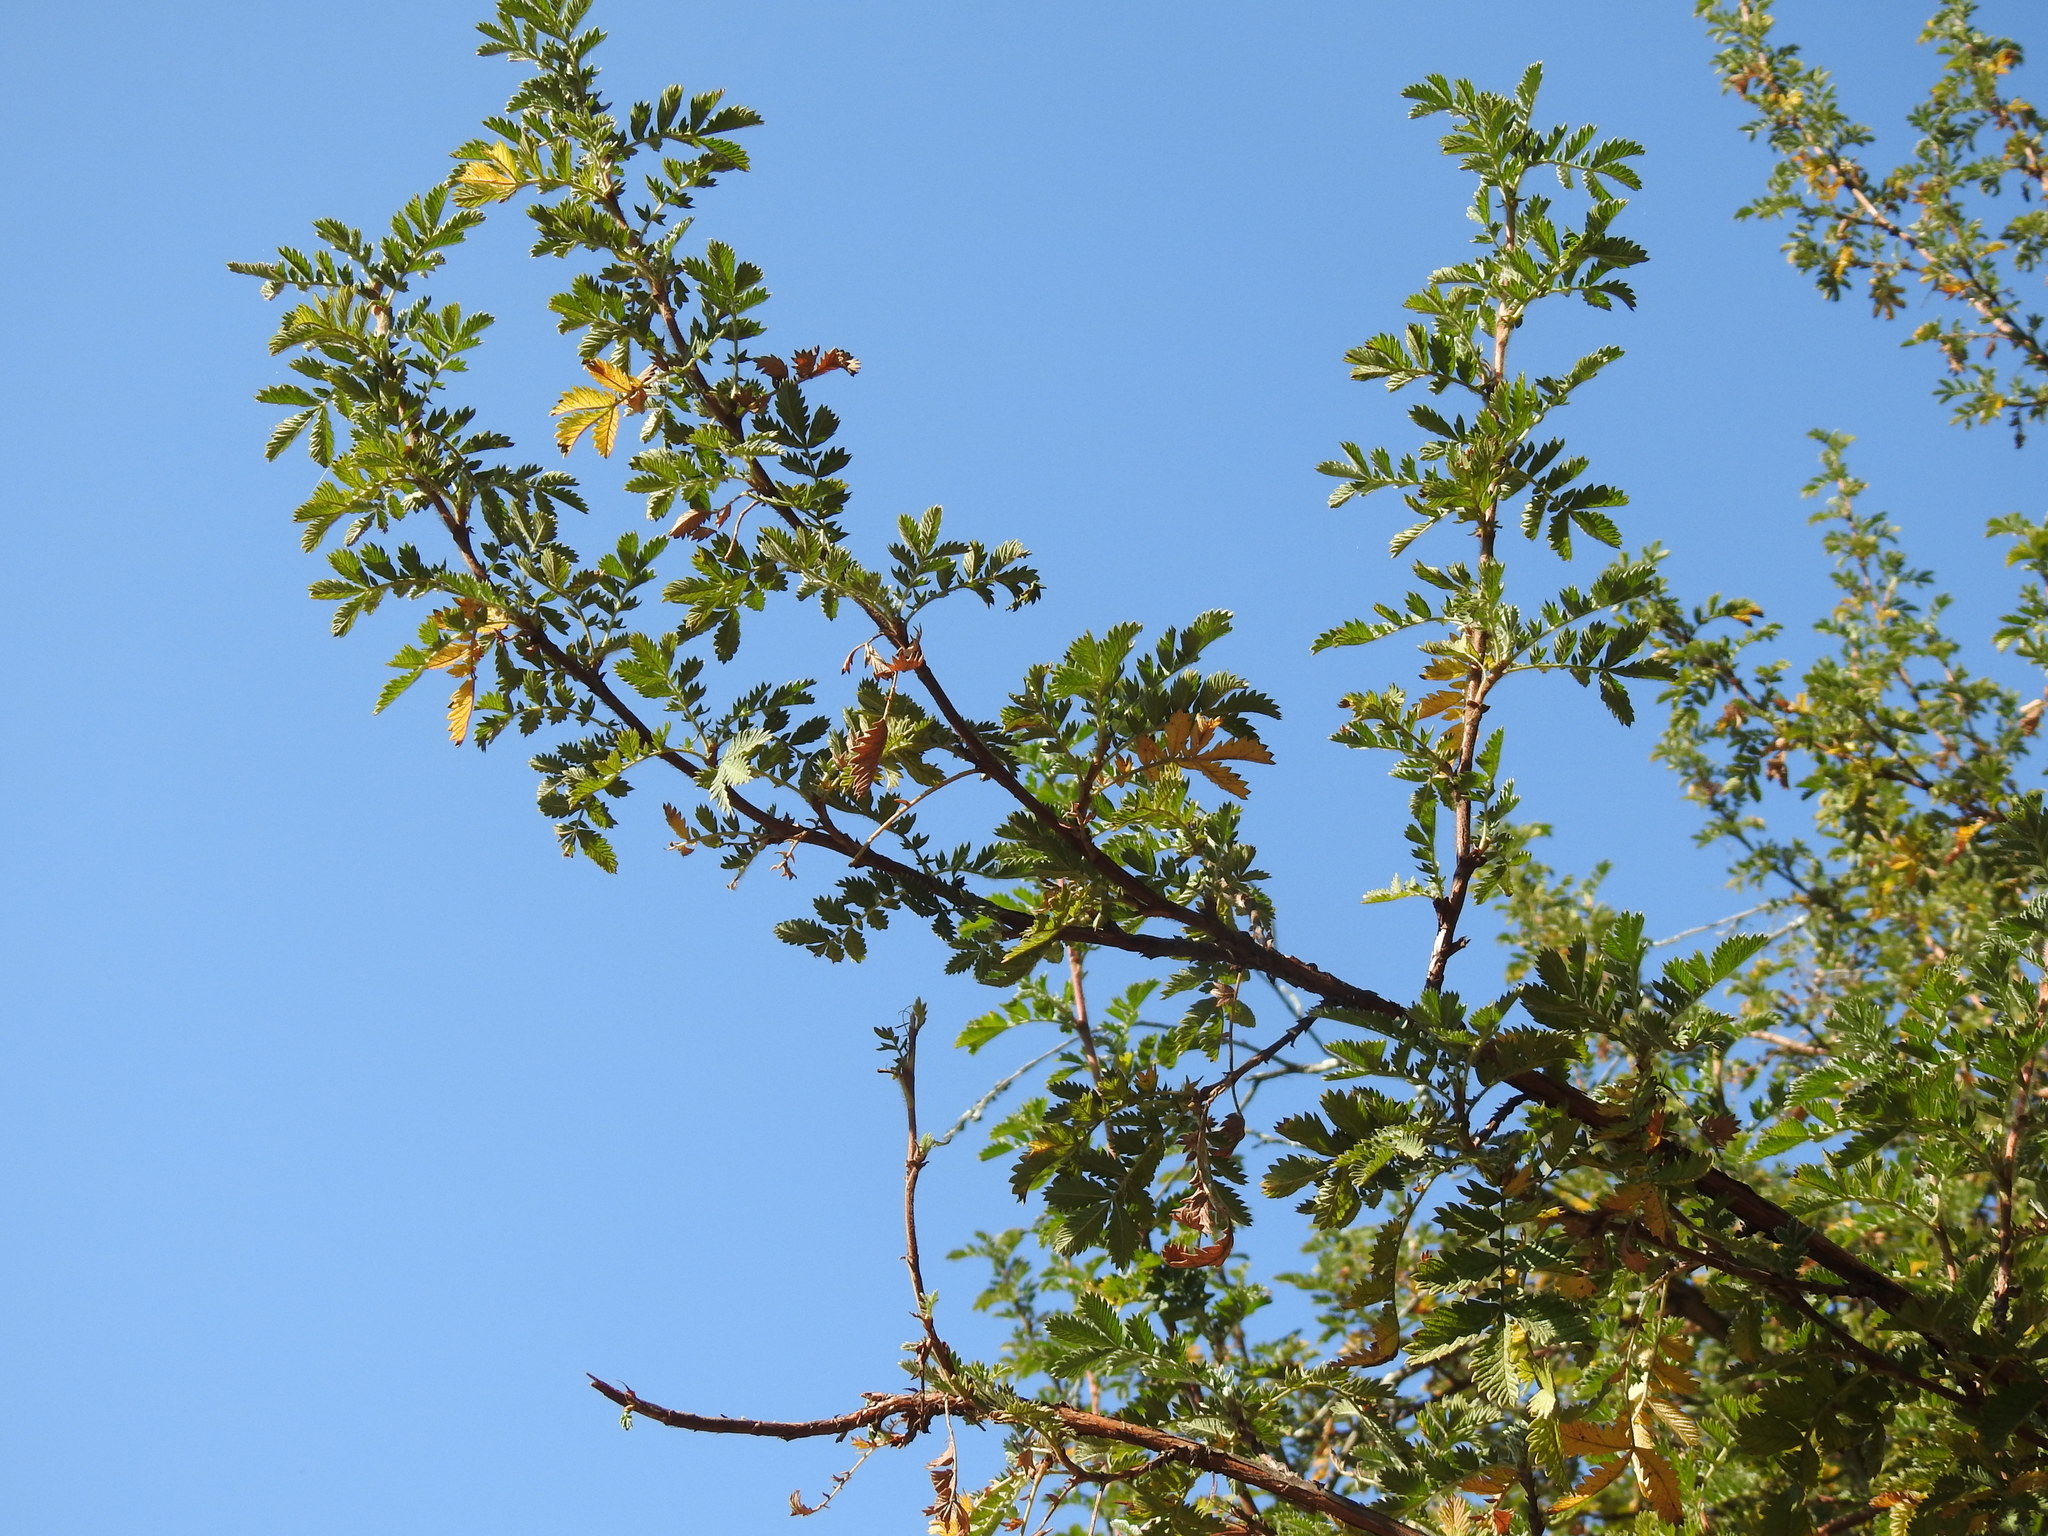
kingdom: Plantae
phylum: Tracheophyta
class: Magnoliopsida
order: Rosales
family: Rosaceae
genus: Leucosidea
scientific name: Leucosidea sericea
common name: Oldwood
